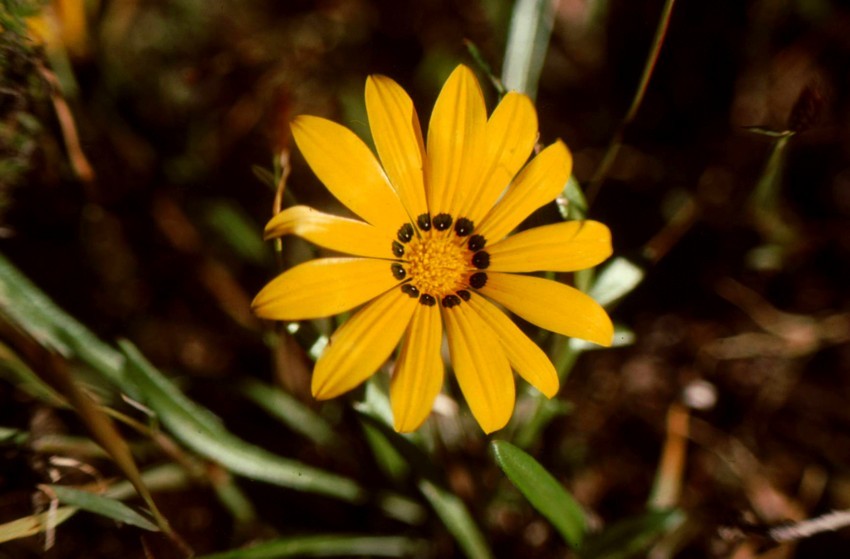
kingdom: Plantae
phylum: Tracheophyta
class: Magnoliopsida
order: Asterales
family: Asteraceae
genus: Gazania
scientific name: Gazania
